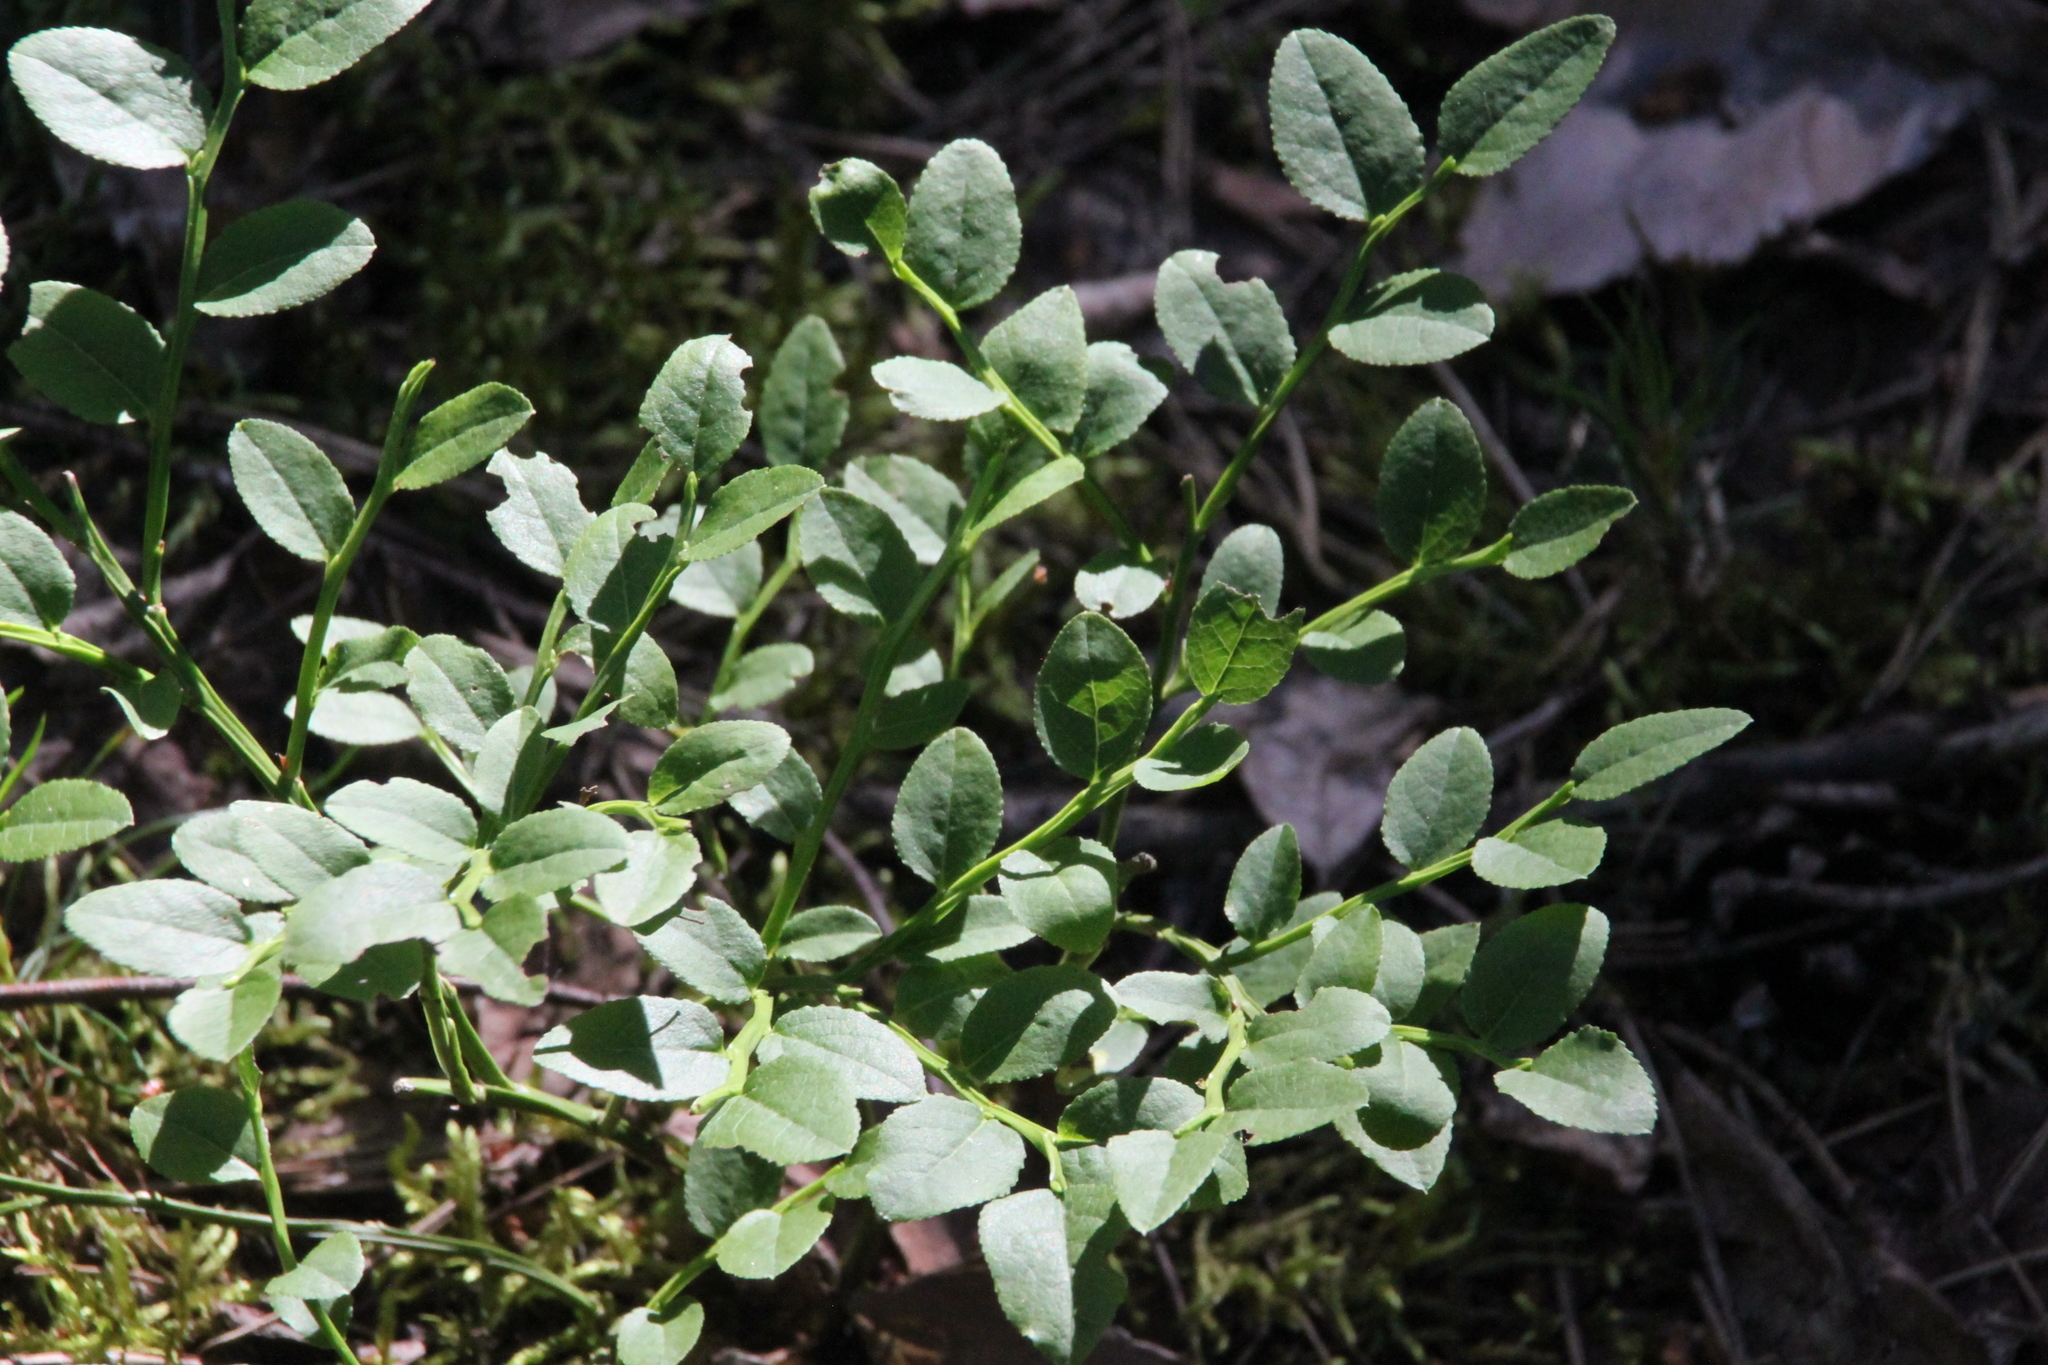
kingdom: Plantae
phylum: Tracheophyta
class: Magnoliopsida
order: Ericales
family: Ericaceae
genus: Vaccinium
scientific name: Vaccinium myrtillus
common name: Bilberry
